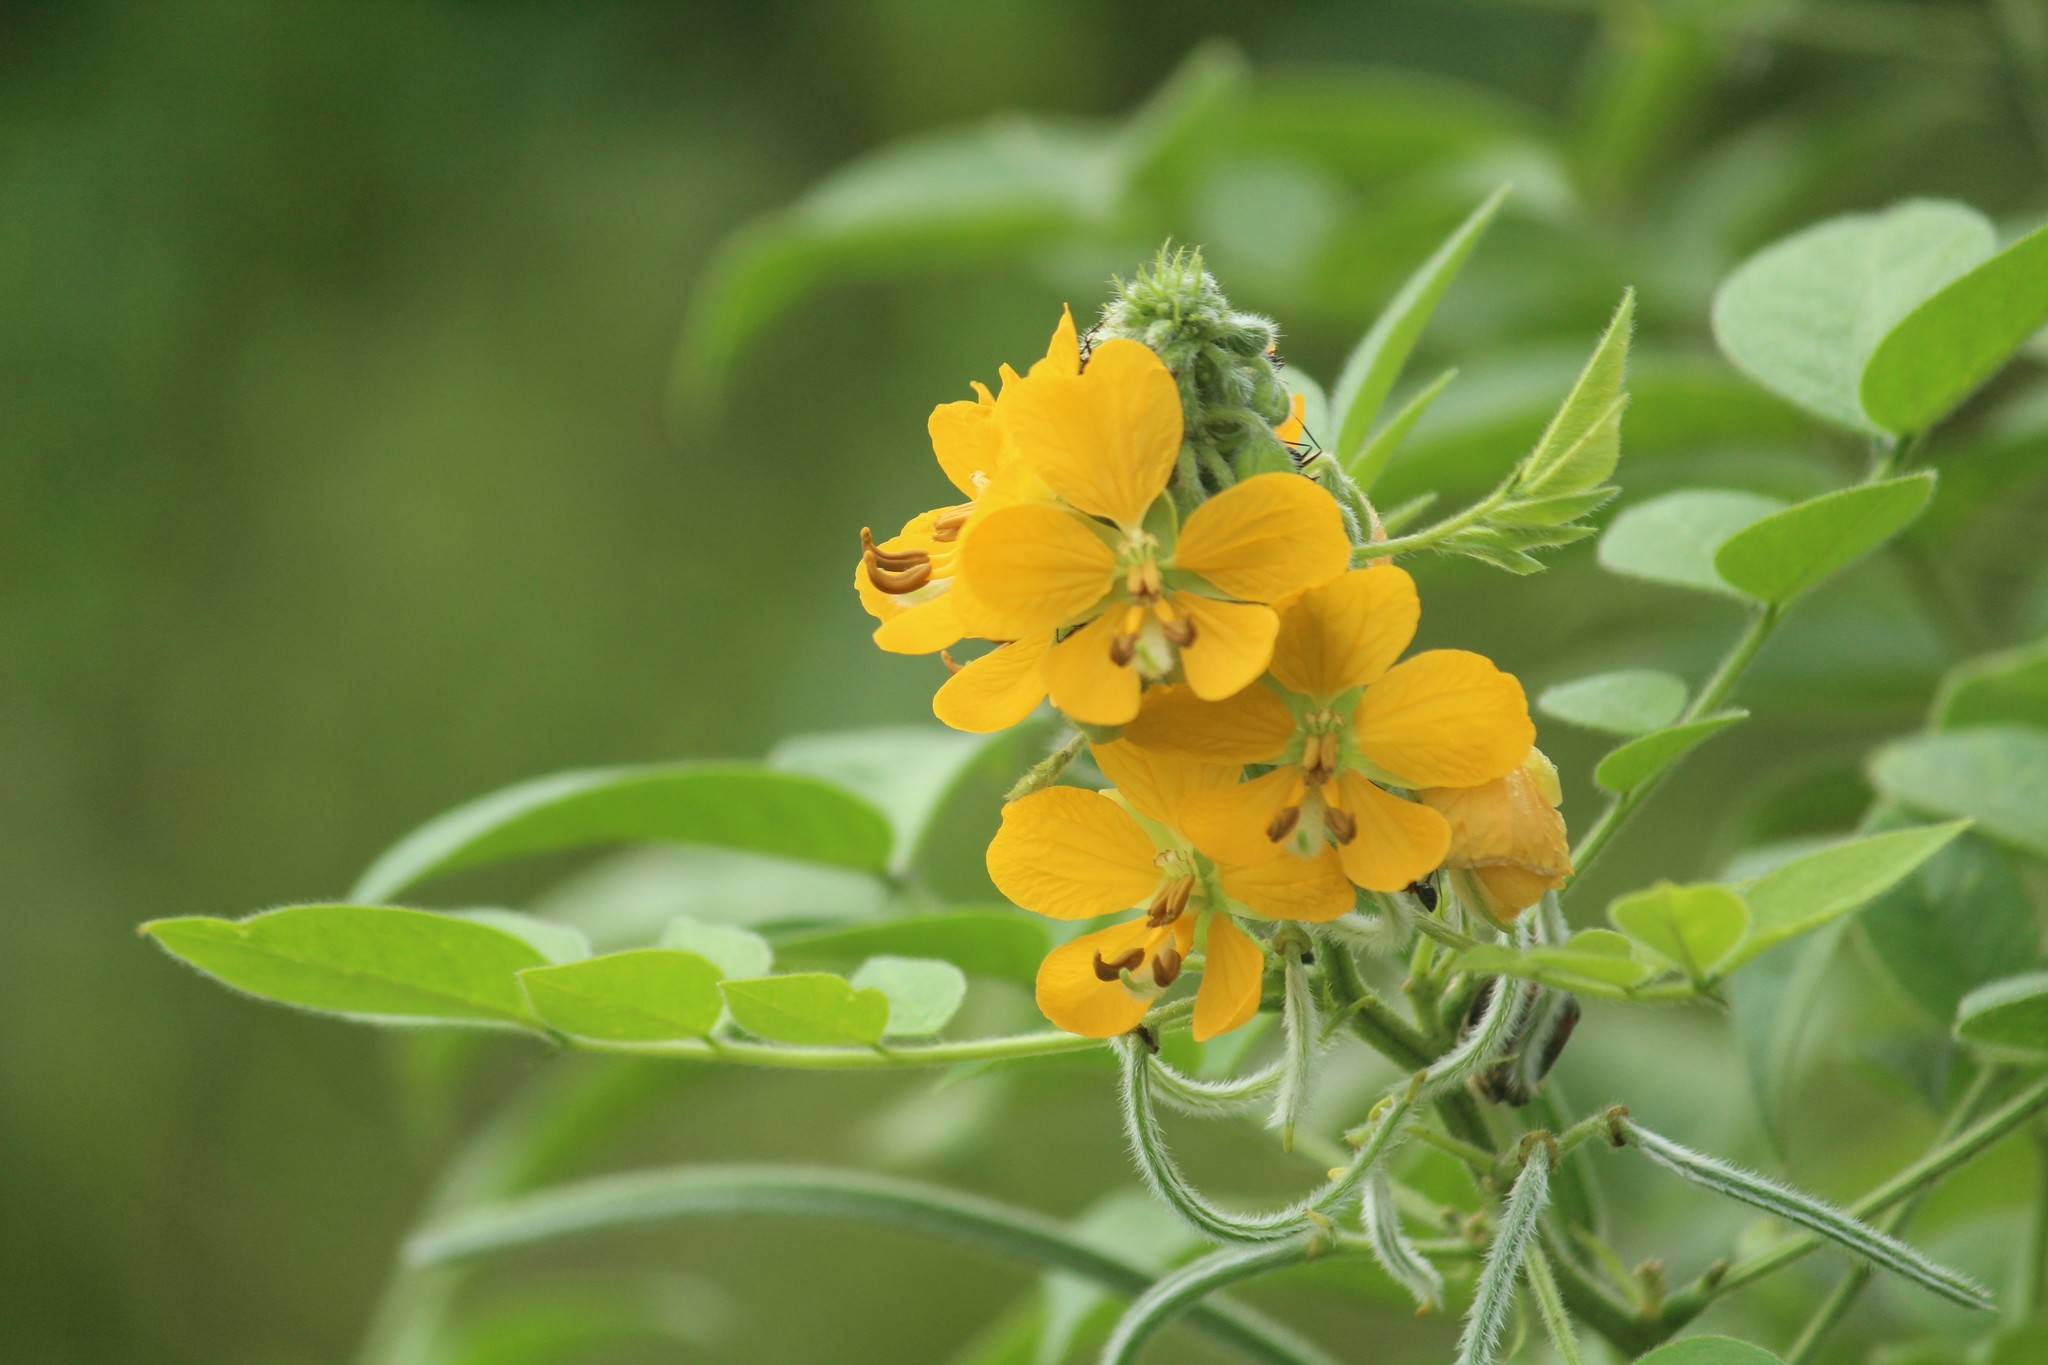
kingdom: Plantae
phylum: Tracheophyta
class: Magnoliopsida
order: Fabales
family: Fabaceae
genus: Senna
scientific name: Senna hirsuta
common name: Woolly senna
